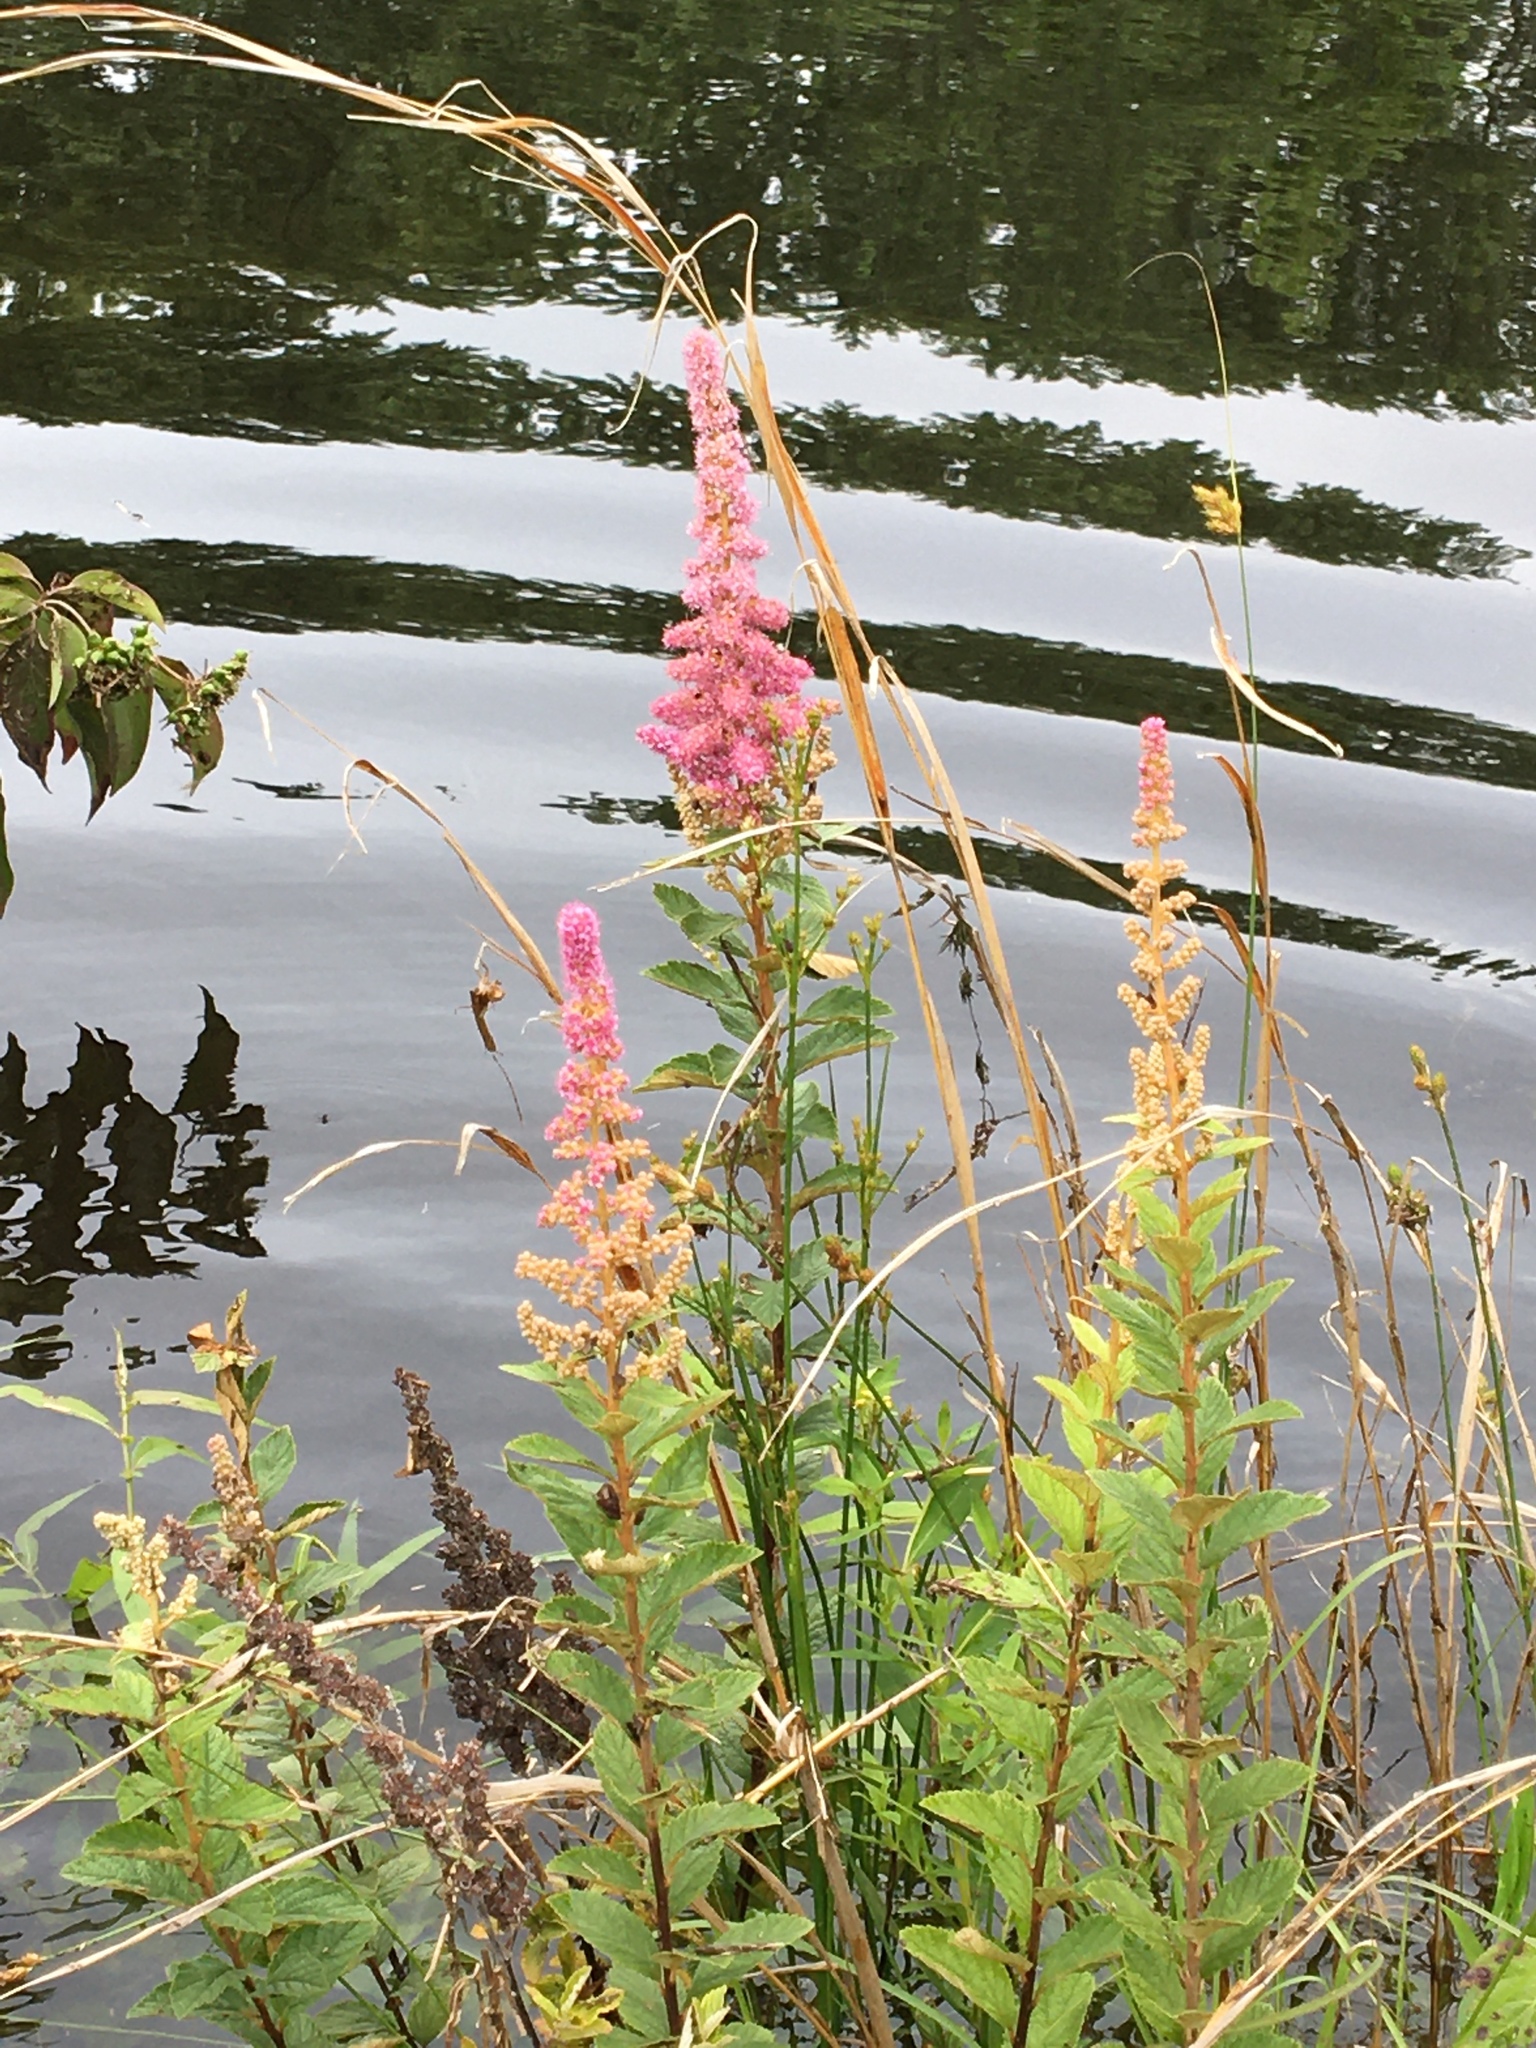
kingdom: Plantae
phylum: Tracheophyta
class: Magnoliopsida
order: Rosales
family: Rosaceae
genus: Spiraea
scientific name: Spiraea tomentosa
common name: Hardhack
